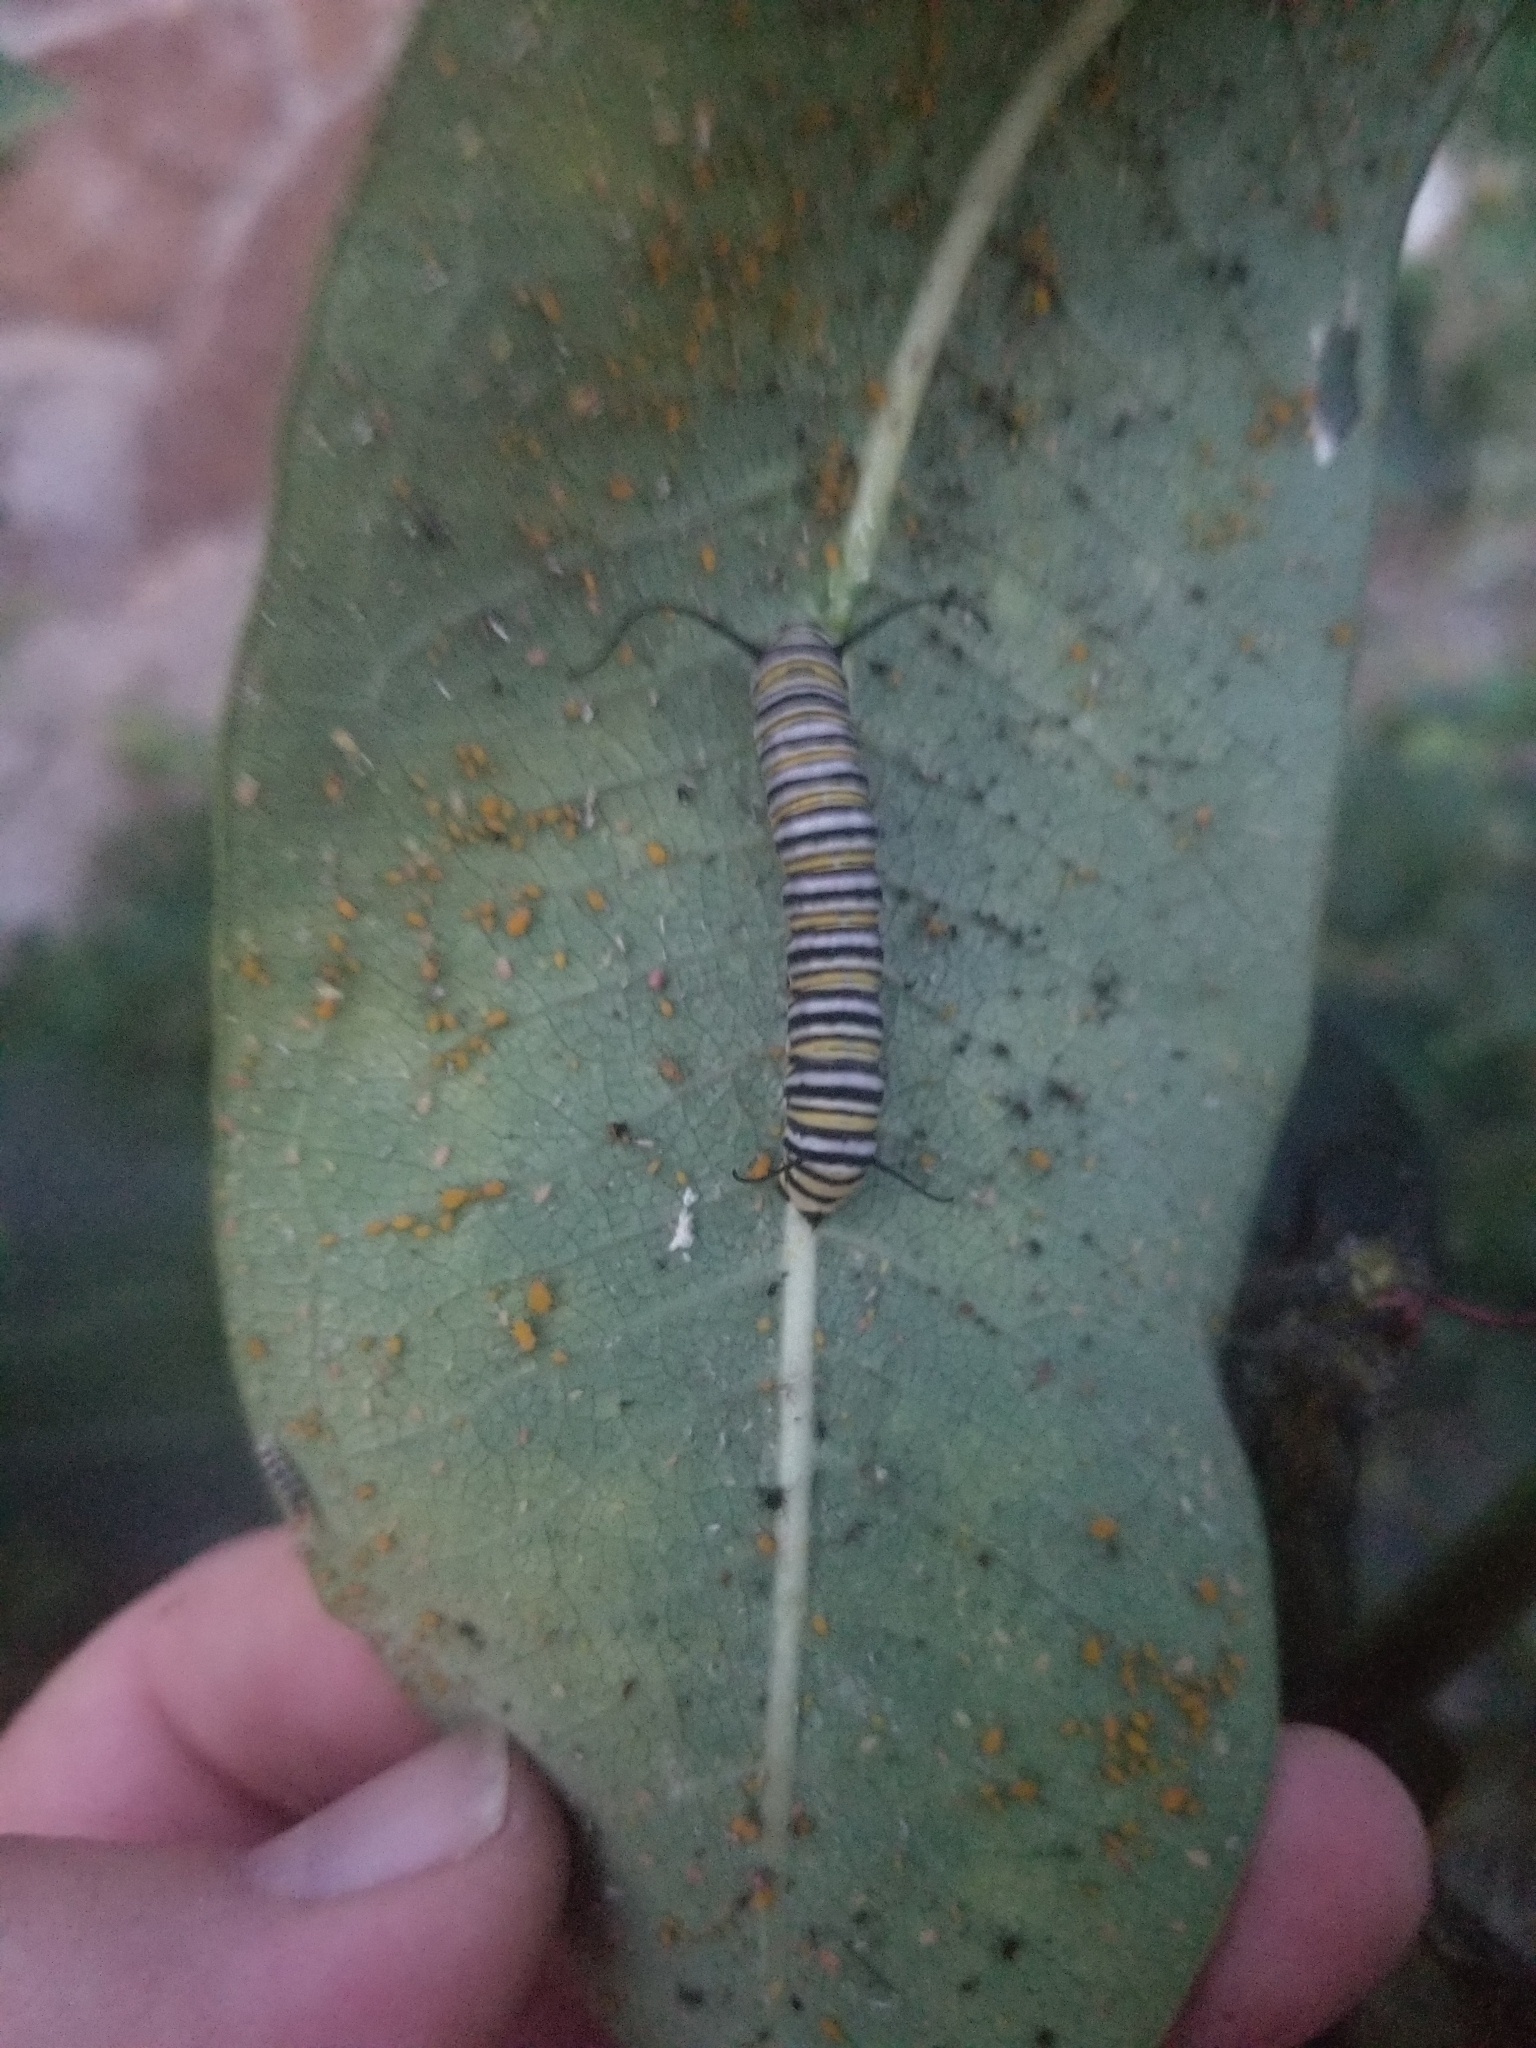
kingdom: Animalia
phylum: Arthropoda
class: Insecta
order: Lepidoptera
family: Nymphalidae
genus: Danaus
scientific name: Danaus plexippus
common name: Monarch
